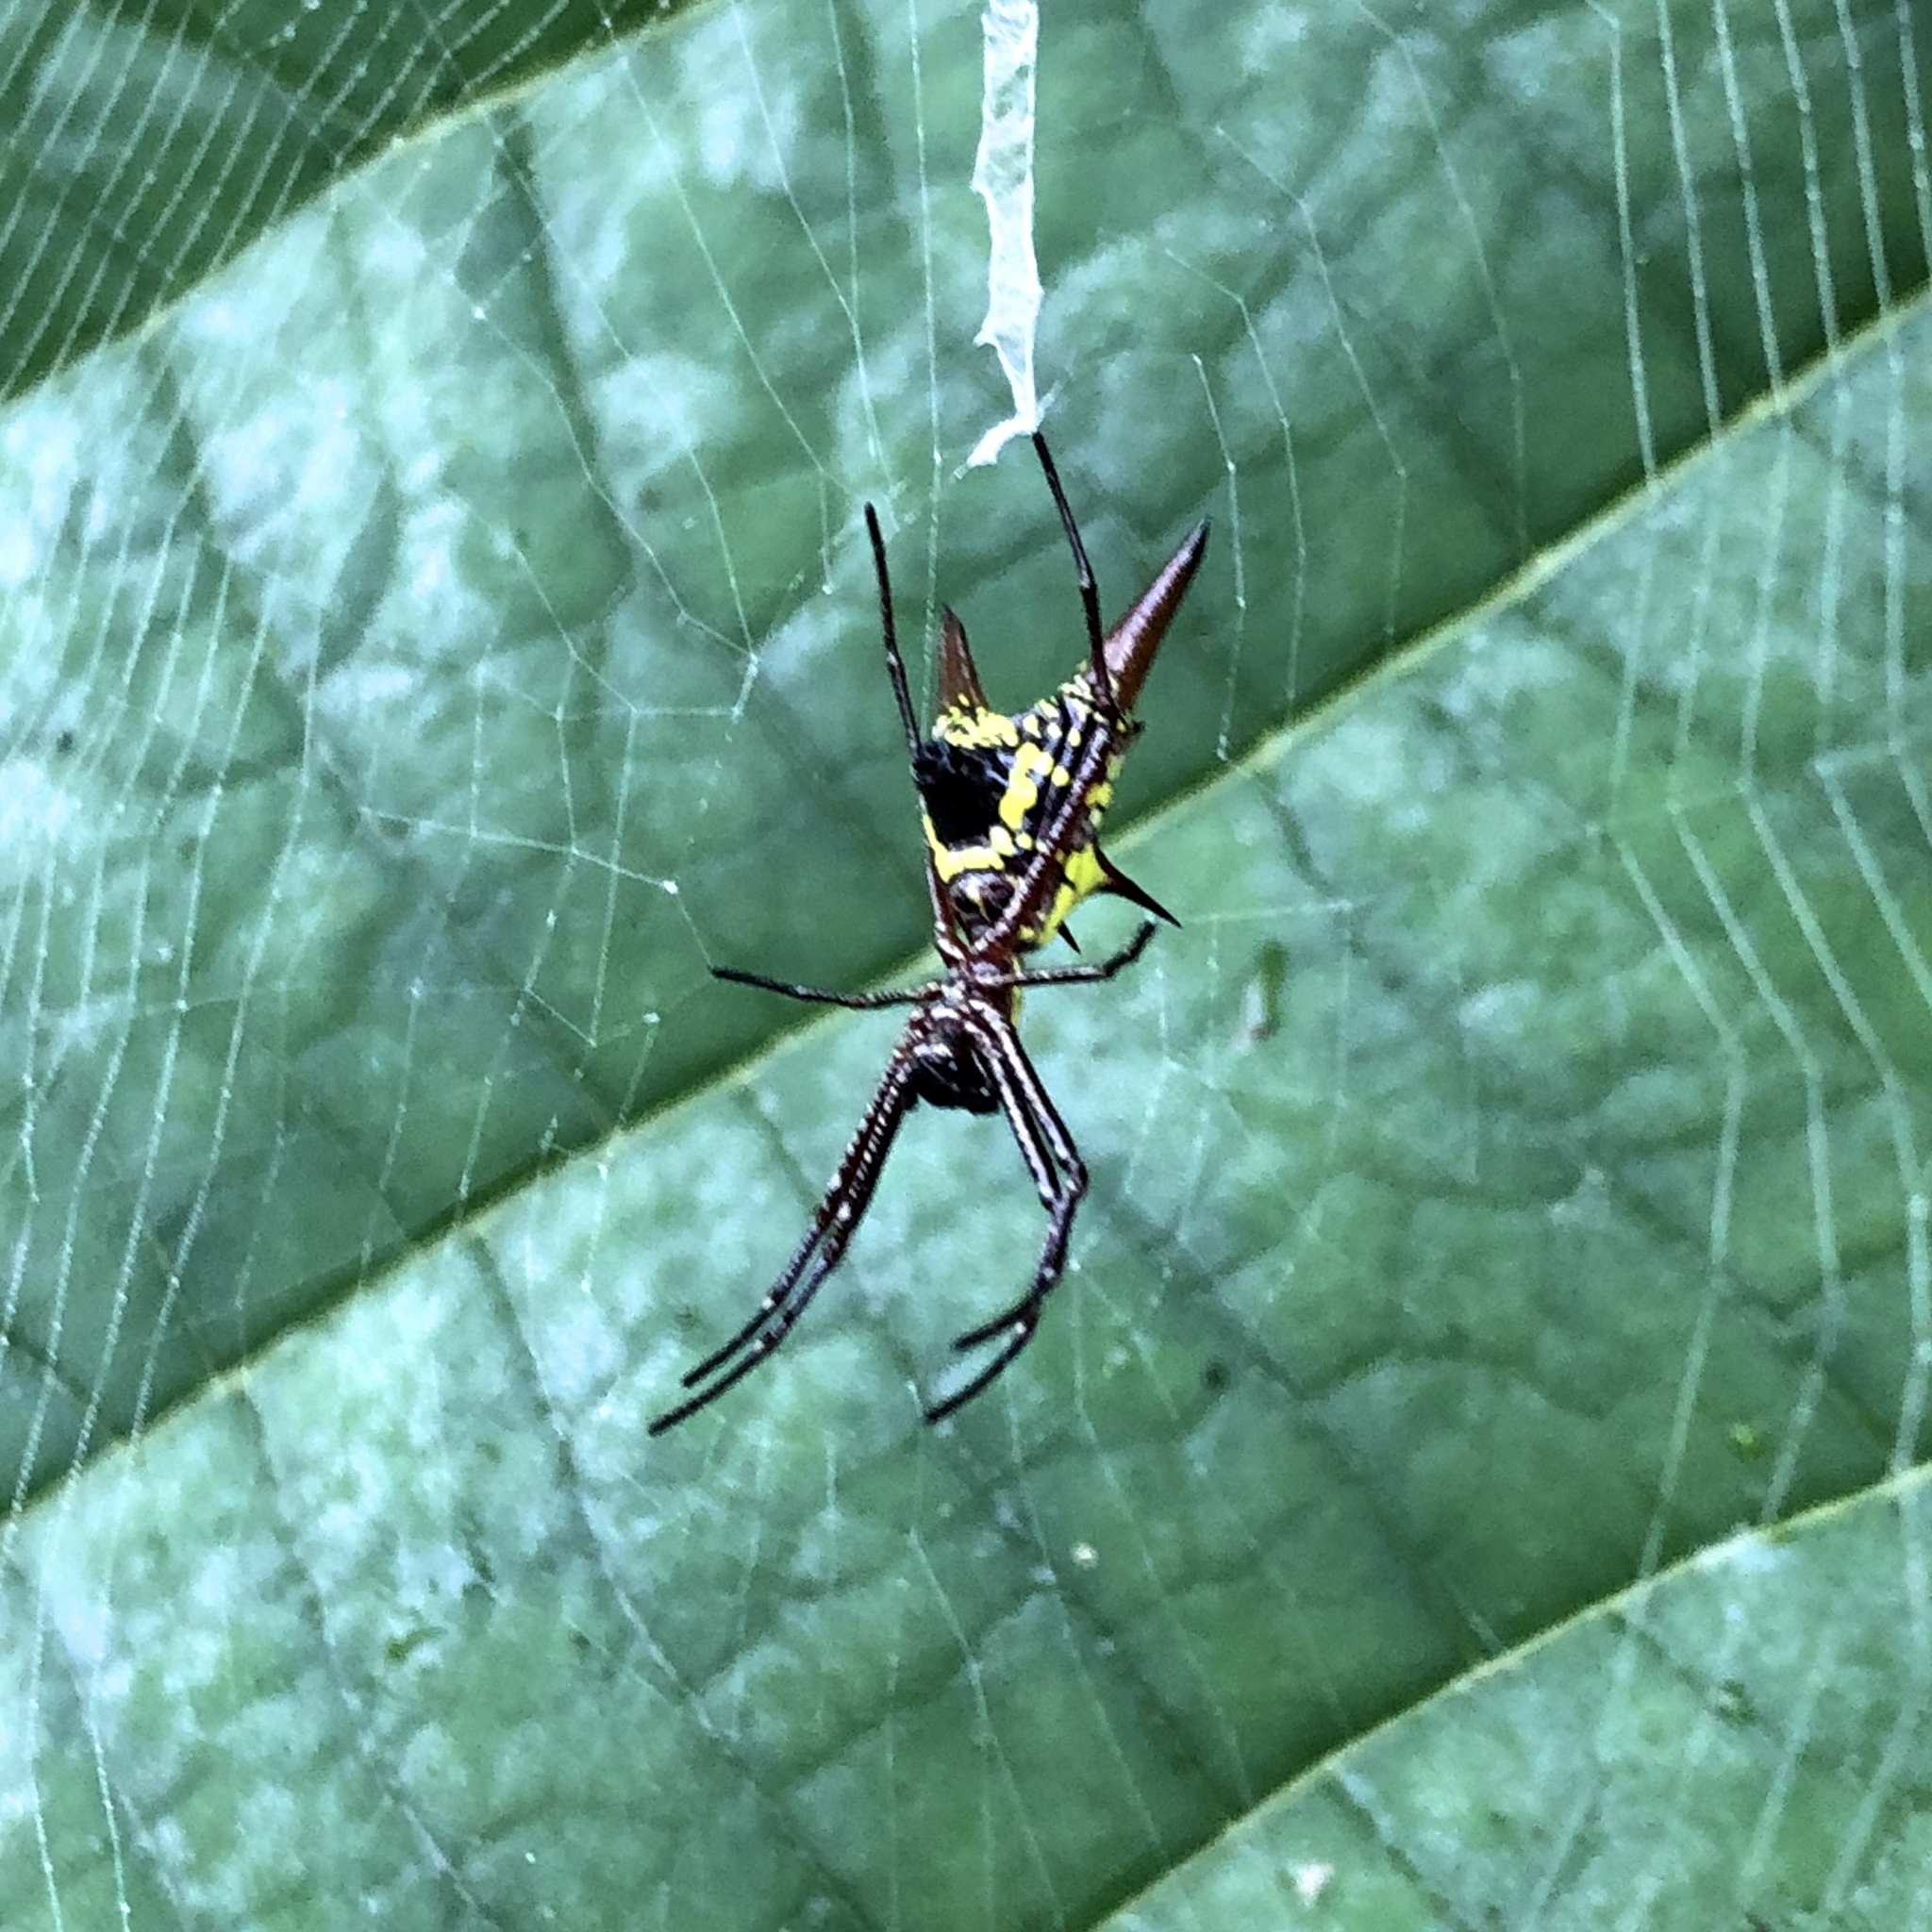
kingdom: Animalia
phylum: Arthropoda
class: Arachnida
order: Araneae
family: Araneidae
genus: Micrathena
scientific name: Micrathena sexspinosa
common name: Orb weavers
